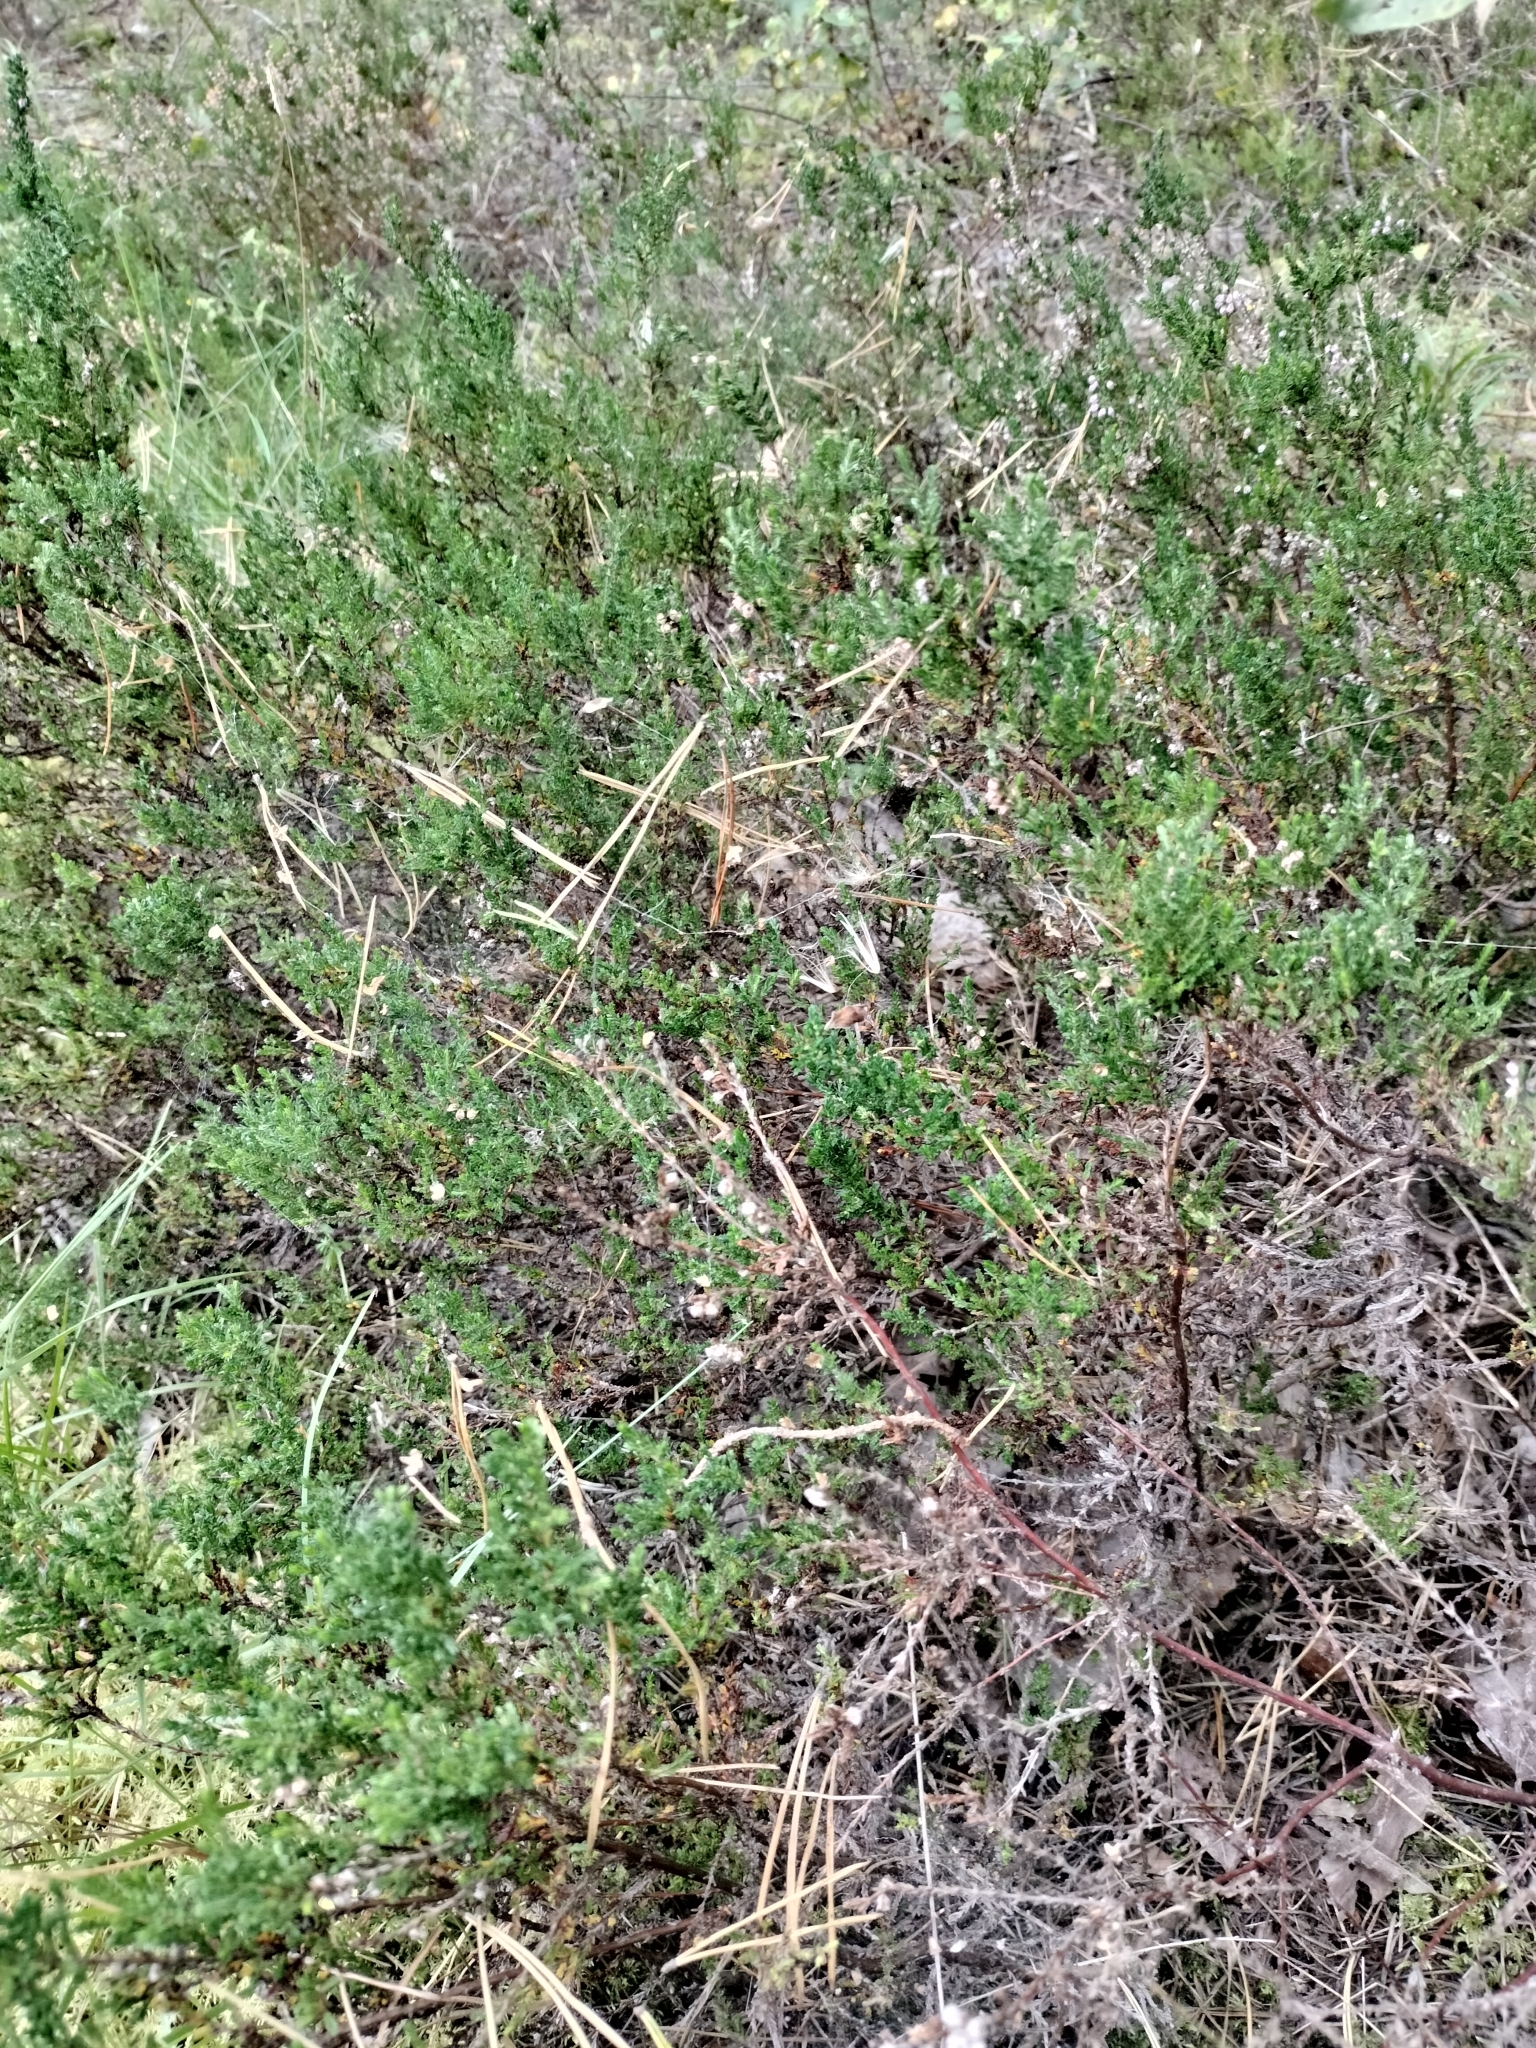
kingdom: Plantae
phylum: Tracheophyta
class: Magnoliopsida
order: Ericales
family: Ericaceae
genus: Calluna
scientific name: Calluna vulgaris
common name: Heather
